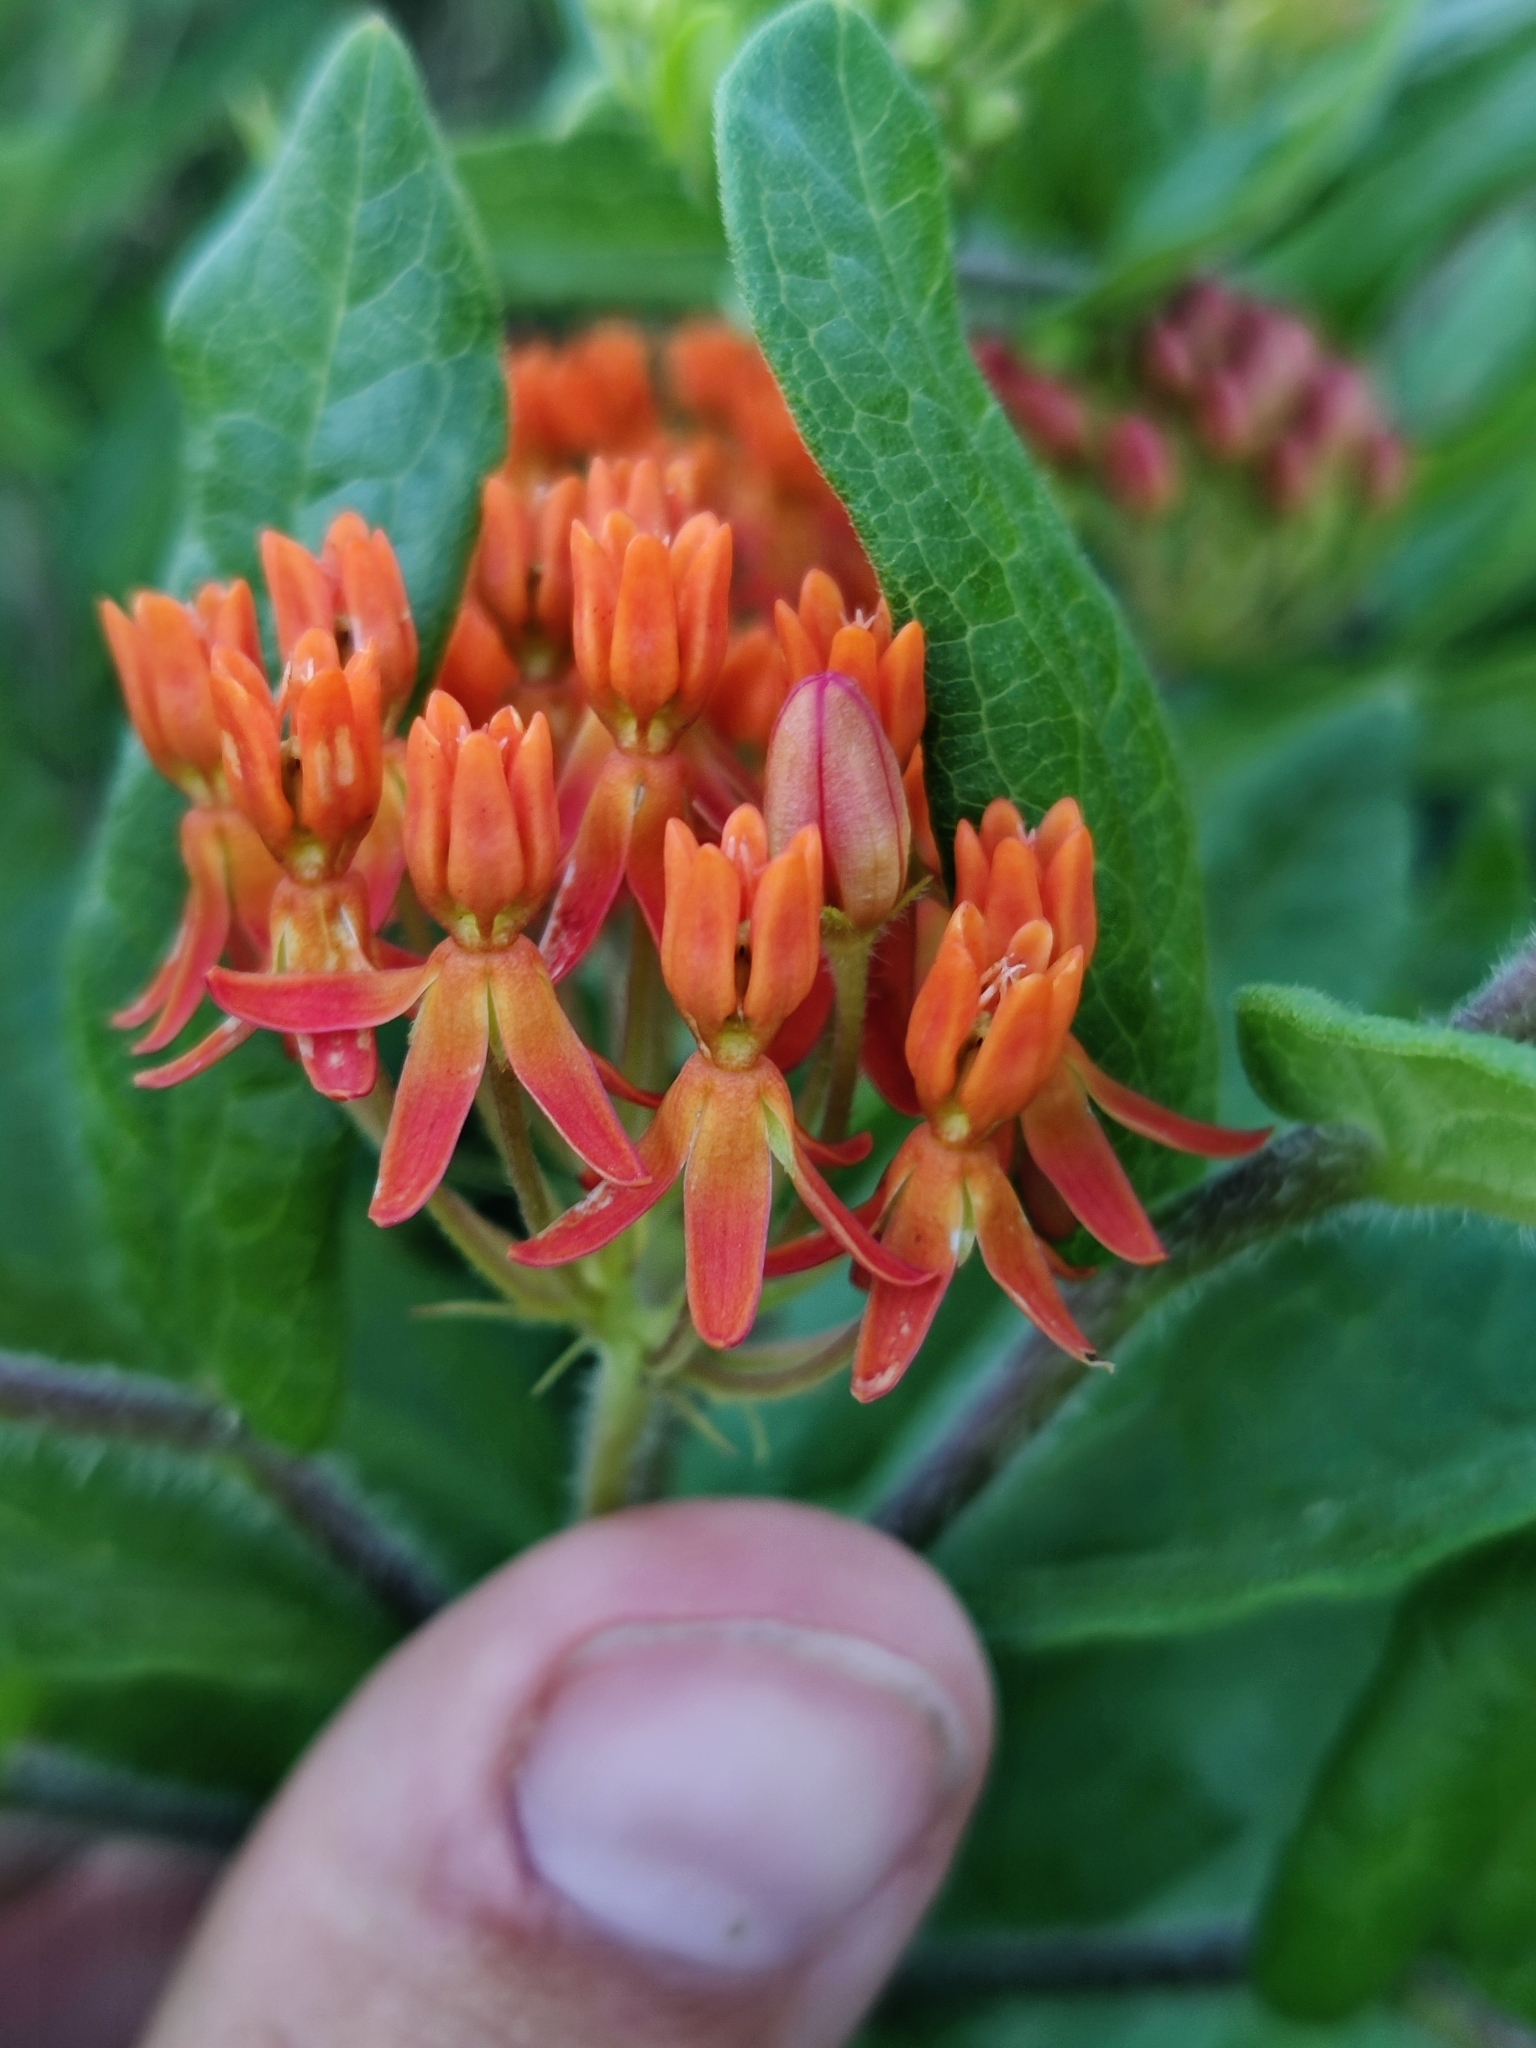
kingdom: Plantae
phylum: Tracheophyta
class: Magnoliopsida
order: Gentianales
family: Apocynaceae
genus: Asclepias
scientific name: Asclepias tuberosa
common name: Butterfly milkweed
